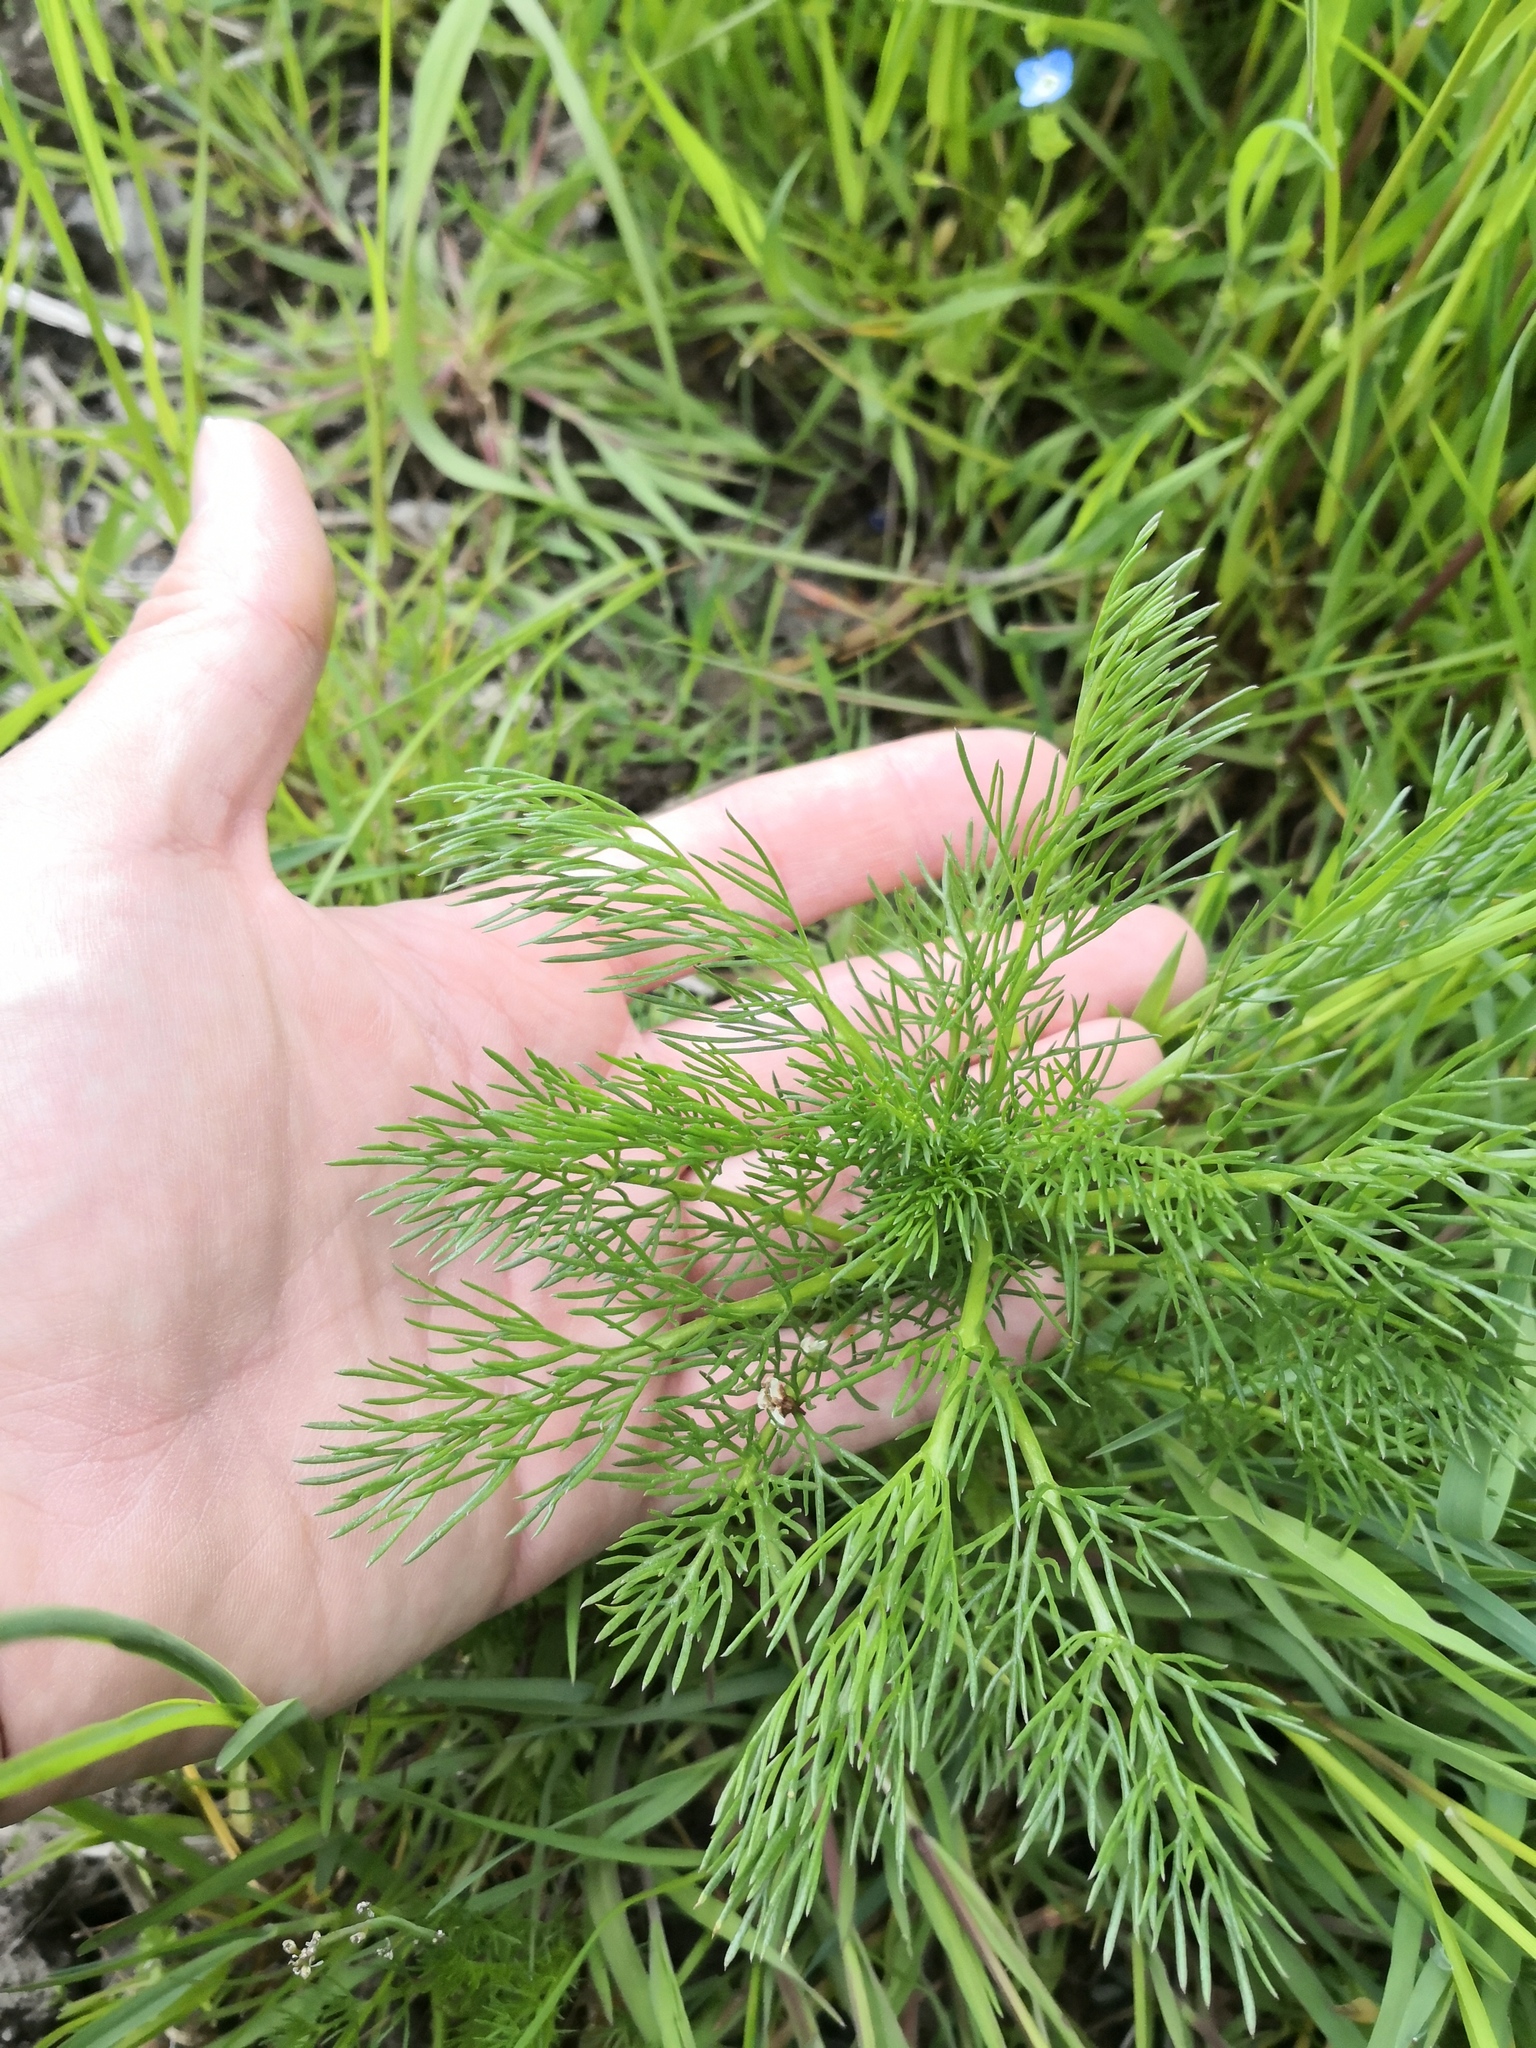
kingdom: Plantae
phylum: Tracheophyta
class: Magnoliopsida
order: Asterales
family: Asteraceae
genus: Tripleurospermum
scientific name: Tripleurospermum inodorum
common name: Scentless mayweed
